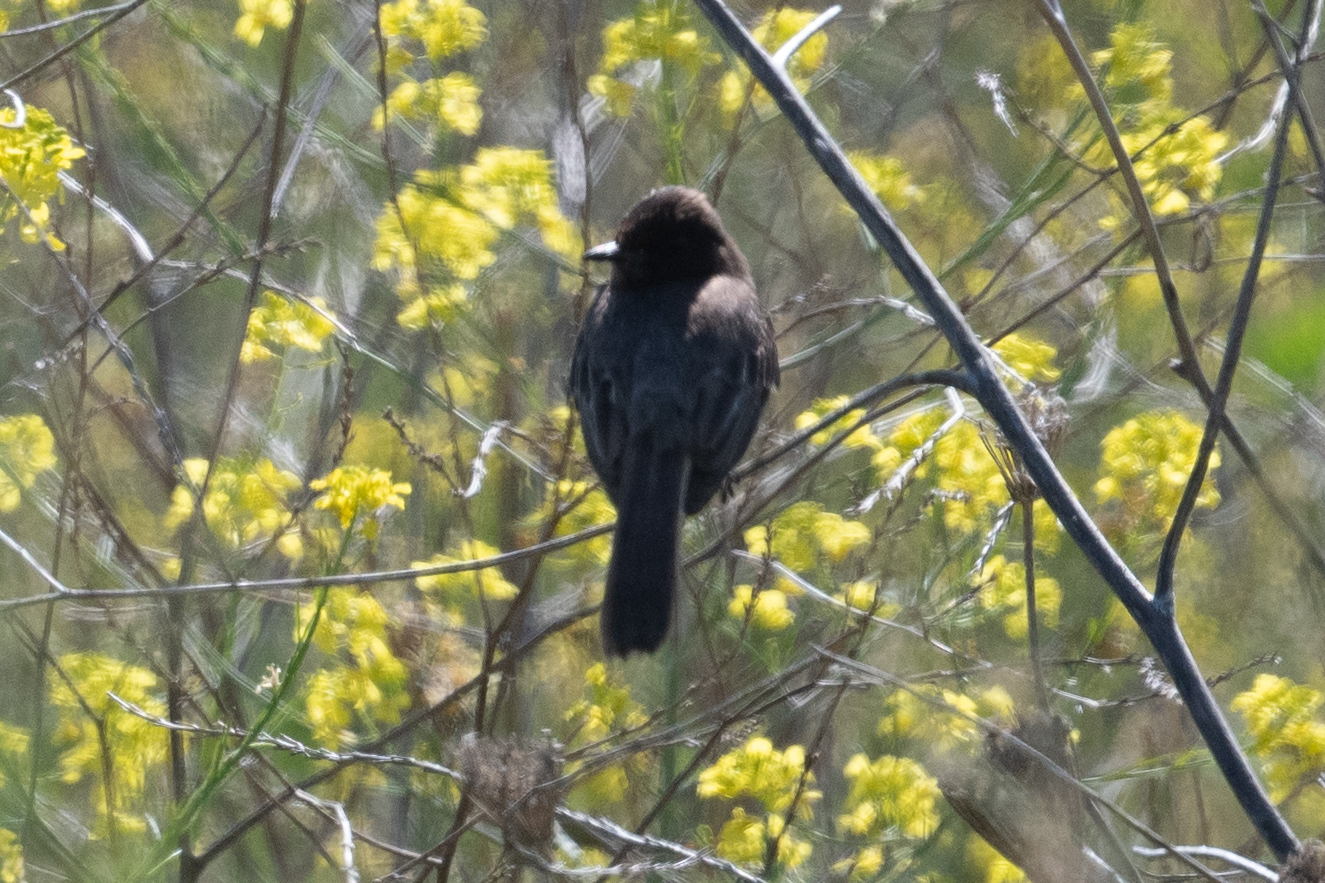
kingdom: Animalia
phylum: Chordata
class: Aves
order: Passeriformes
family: Tyrannidae
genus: Sayornis
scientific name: Sayornis nigricans
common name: Black phoebe
